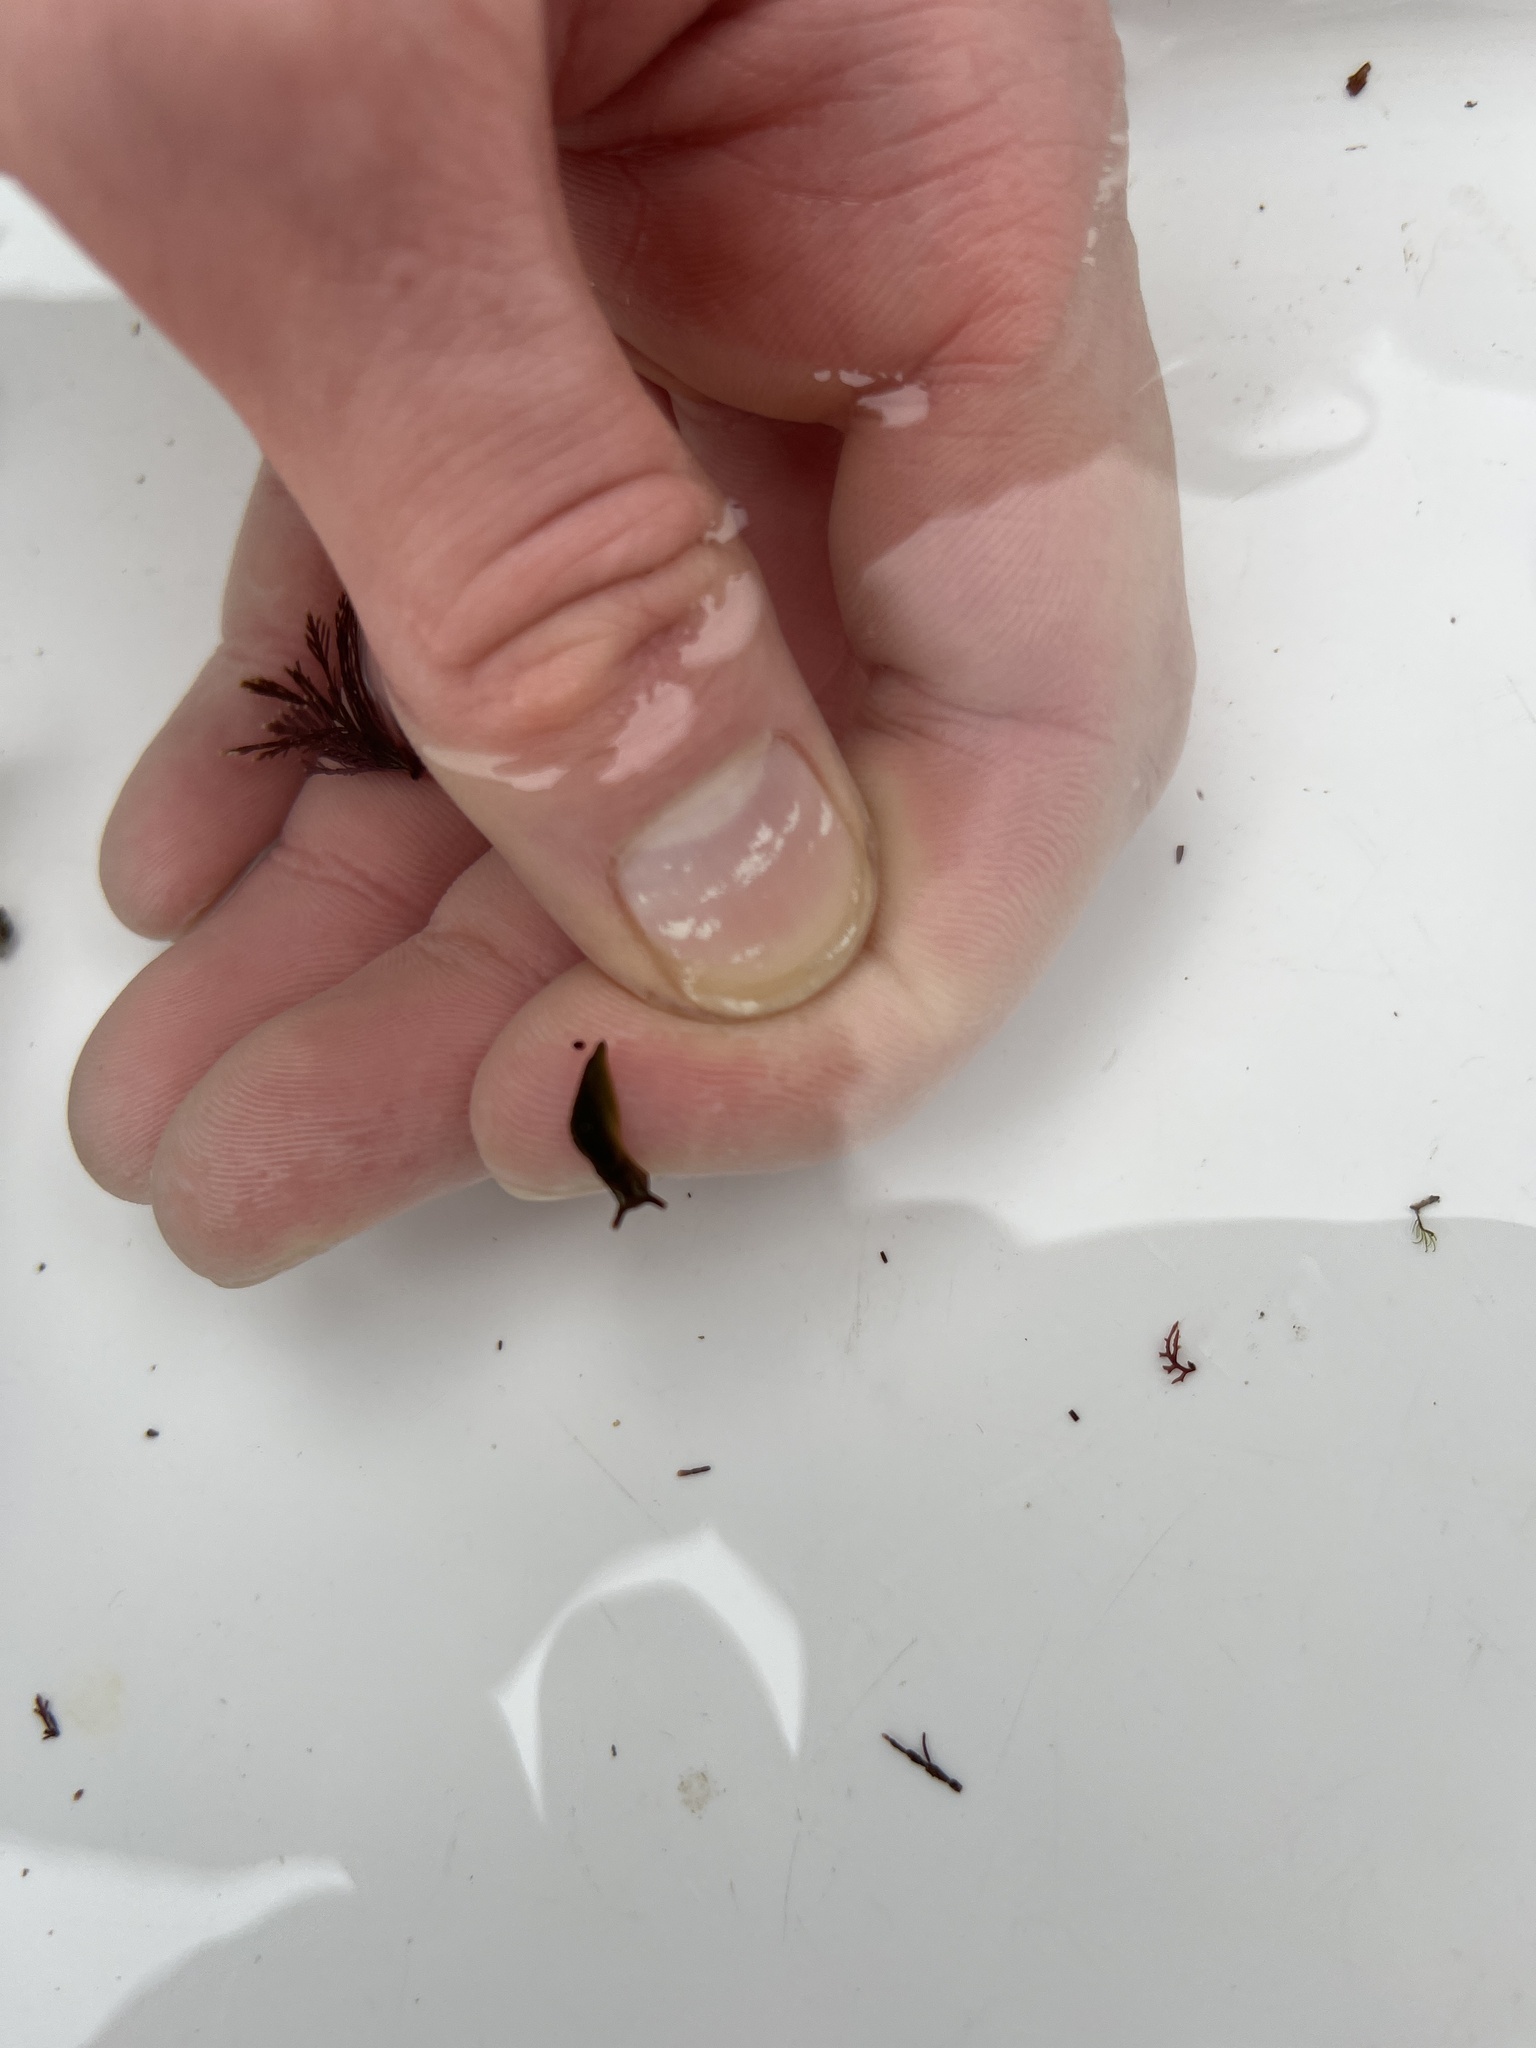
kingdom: Animalia
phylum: Mollusca
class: Gastropoda
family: Plakobranchidae
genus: Elysia
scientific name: Elysia viridis
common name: Green elysia
